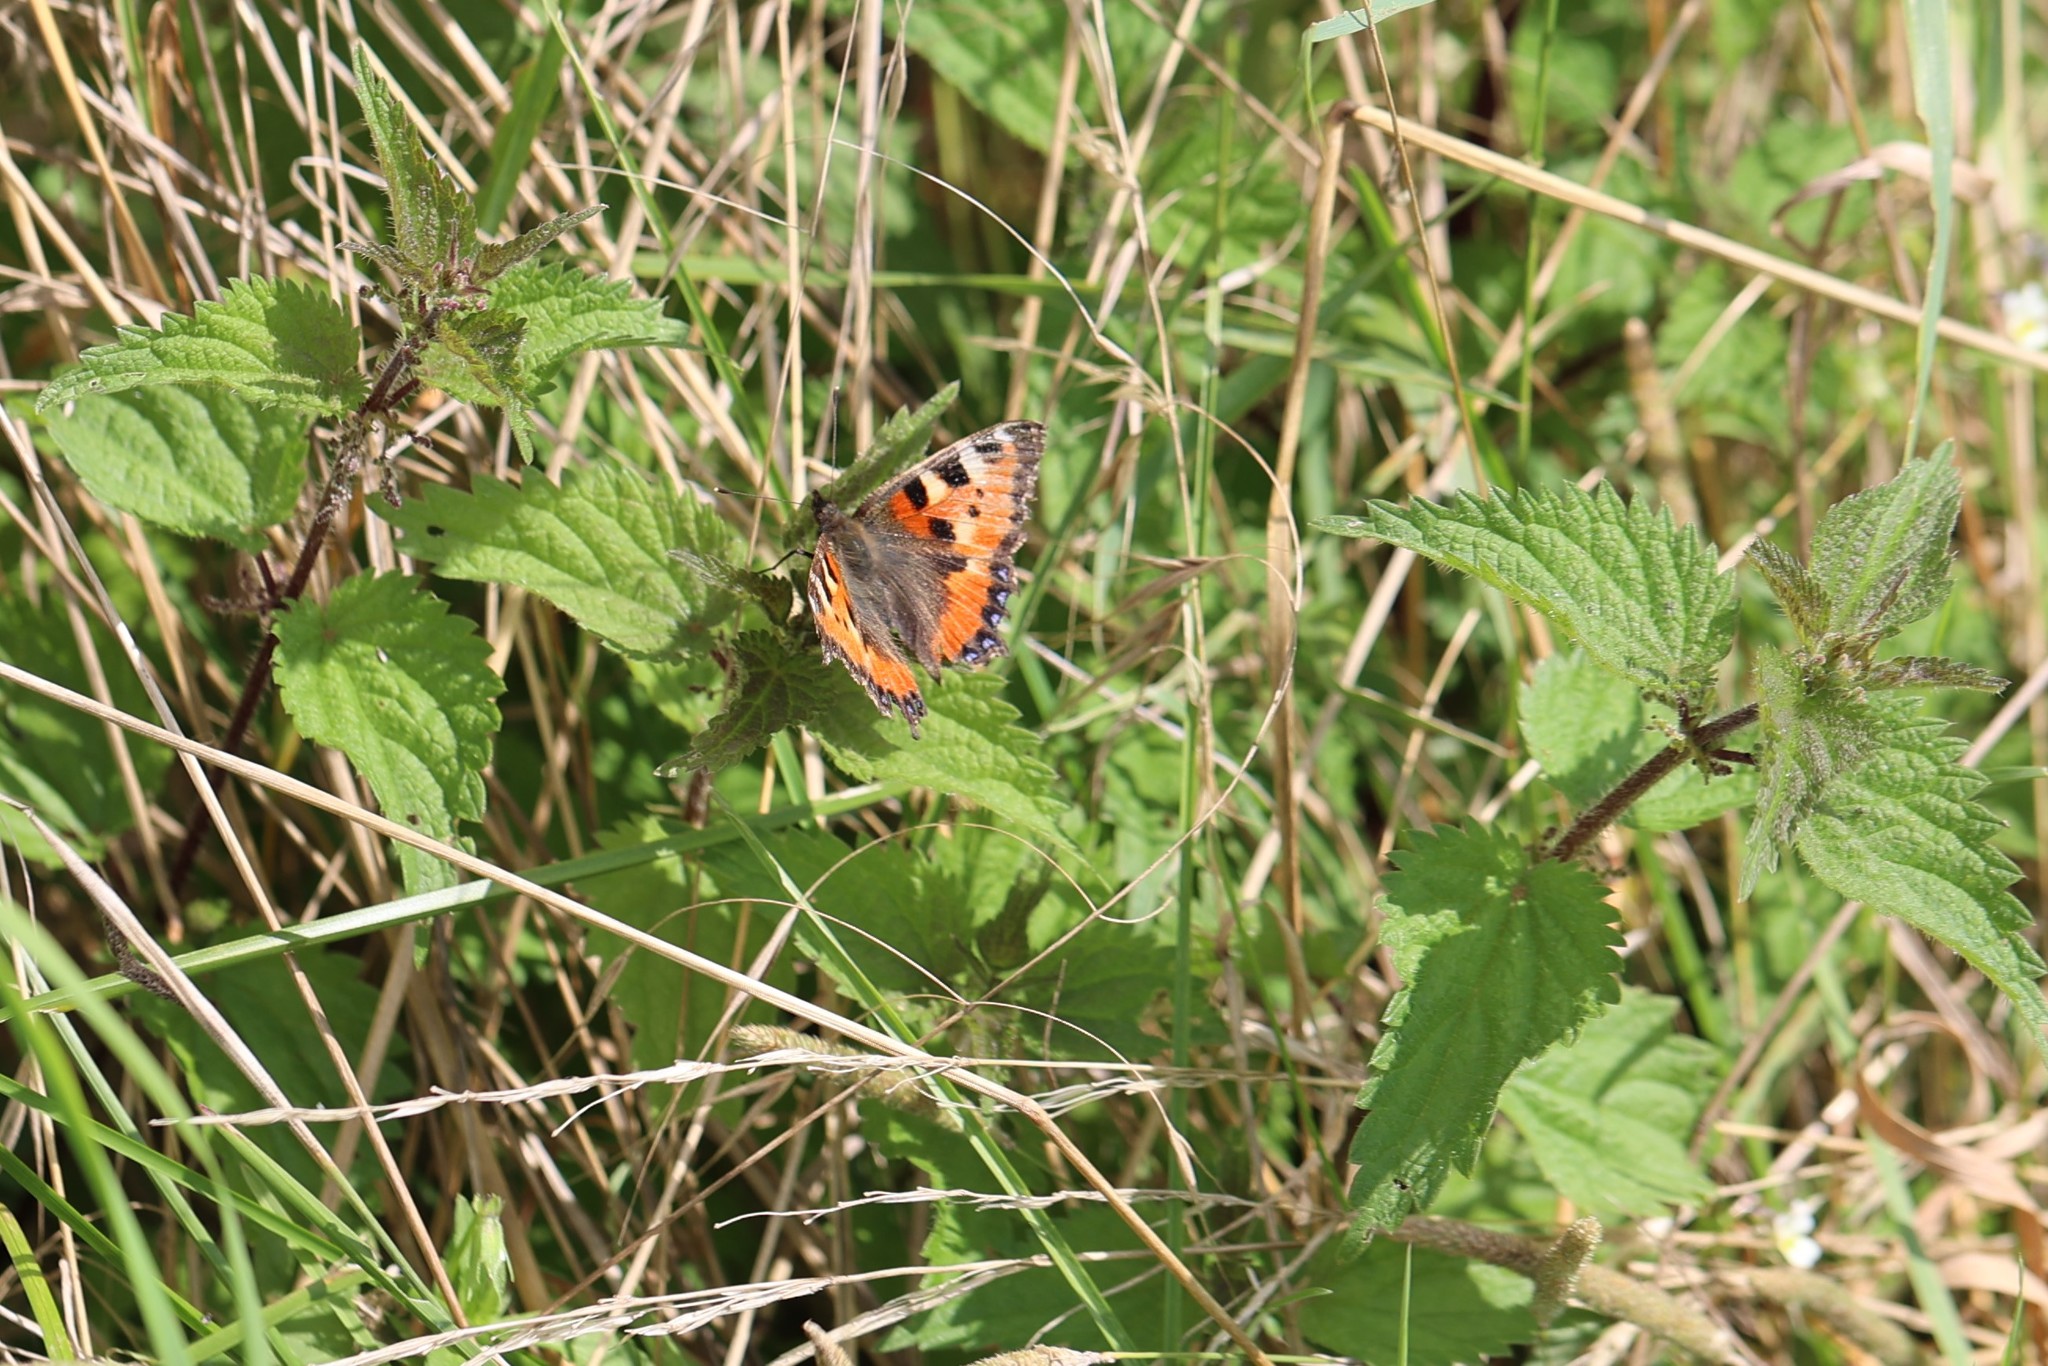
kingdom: Animalia
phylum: Arthropoda
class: Insecta
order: Lepidoptera
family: Nymphalidae
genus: Aglais
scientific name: Aglais urticae
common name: Small tortoiseshell
